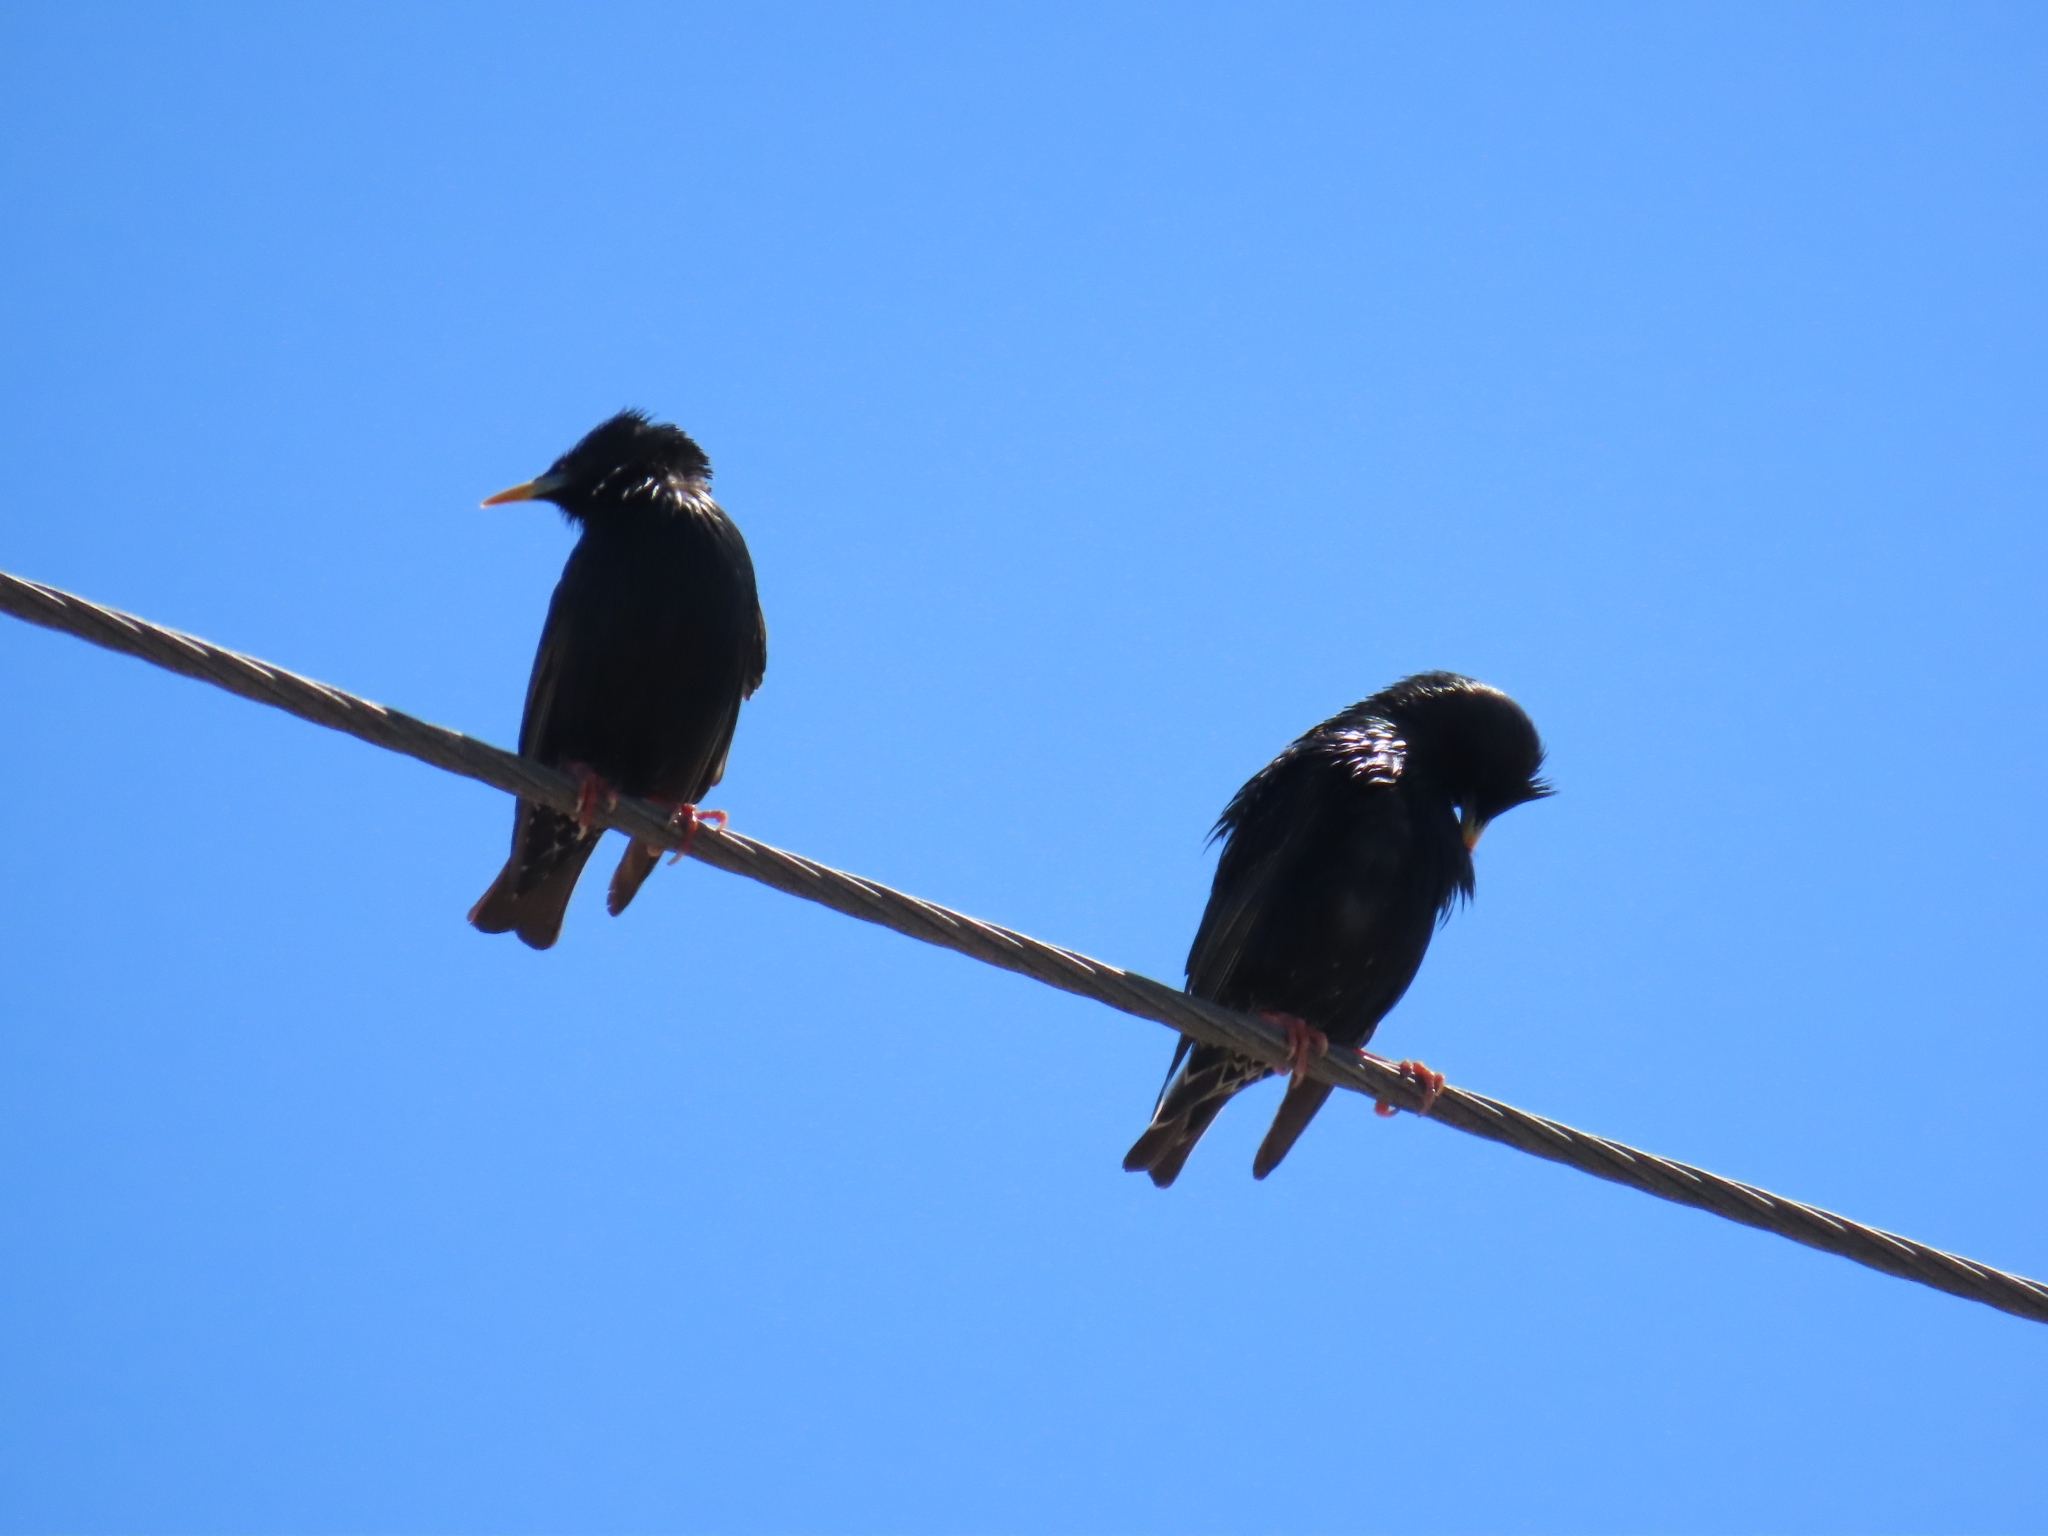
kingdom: Animalia
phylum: Chordata
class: Aves
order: Passeriformes
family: Sturnidae
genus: Sturnus
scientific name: Sturnus vulgaris
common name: Common starling
